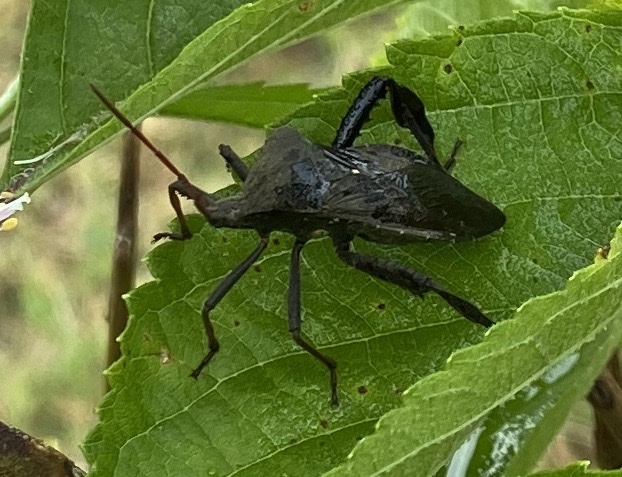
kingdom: Animalia
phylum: Arthropoda
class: Insecta
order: Hemiptera
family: Coreidae
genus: Acanthocephala
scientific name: Acanthocephala femorata
